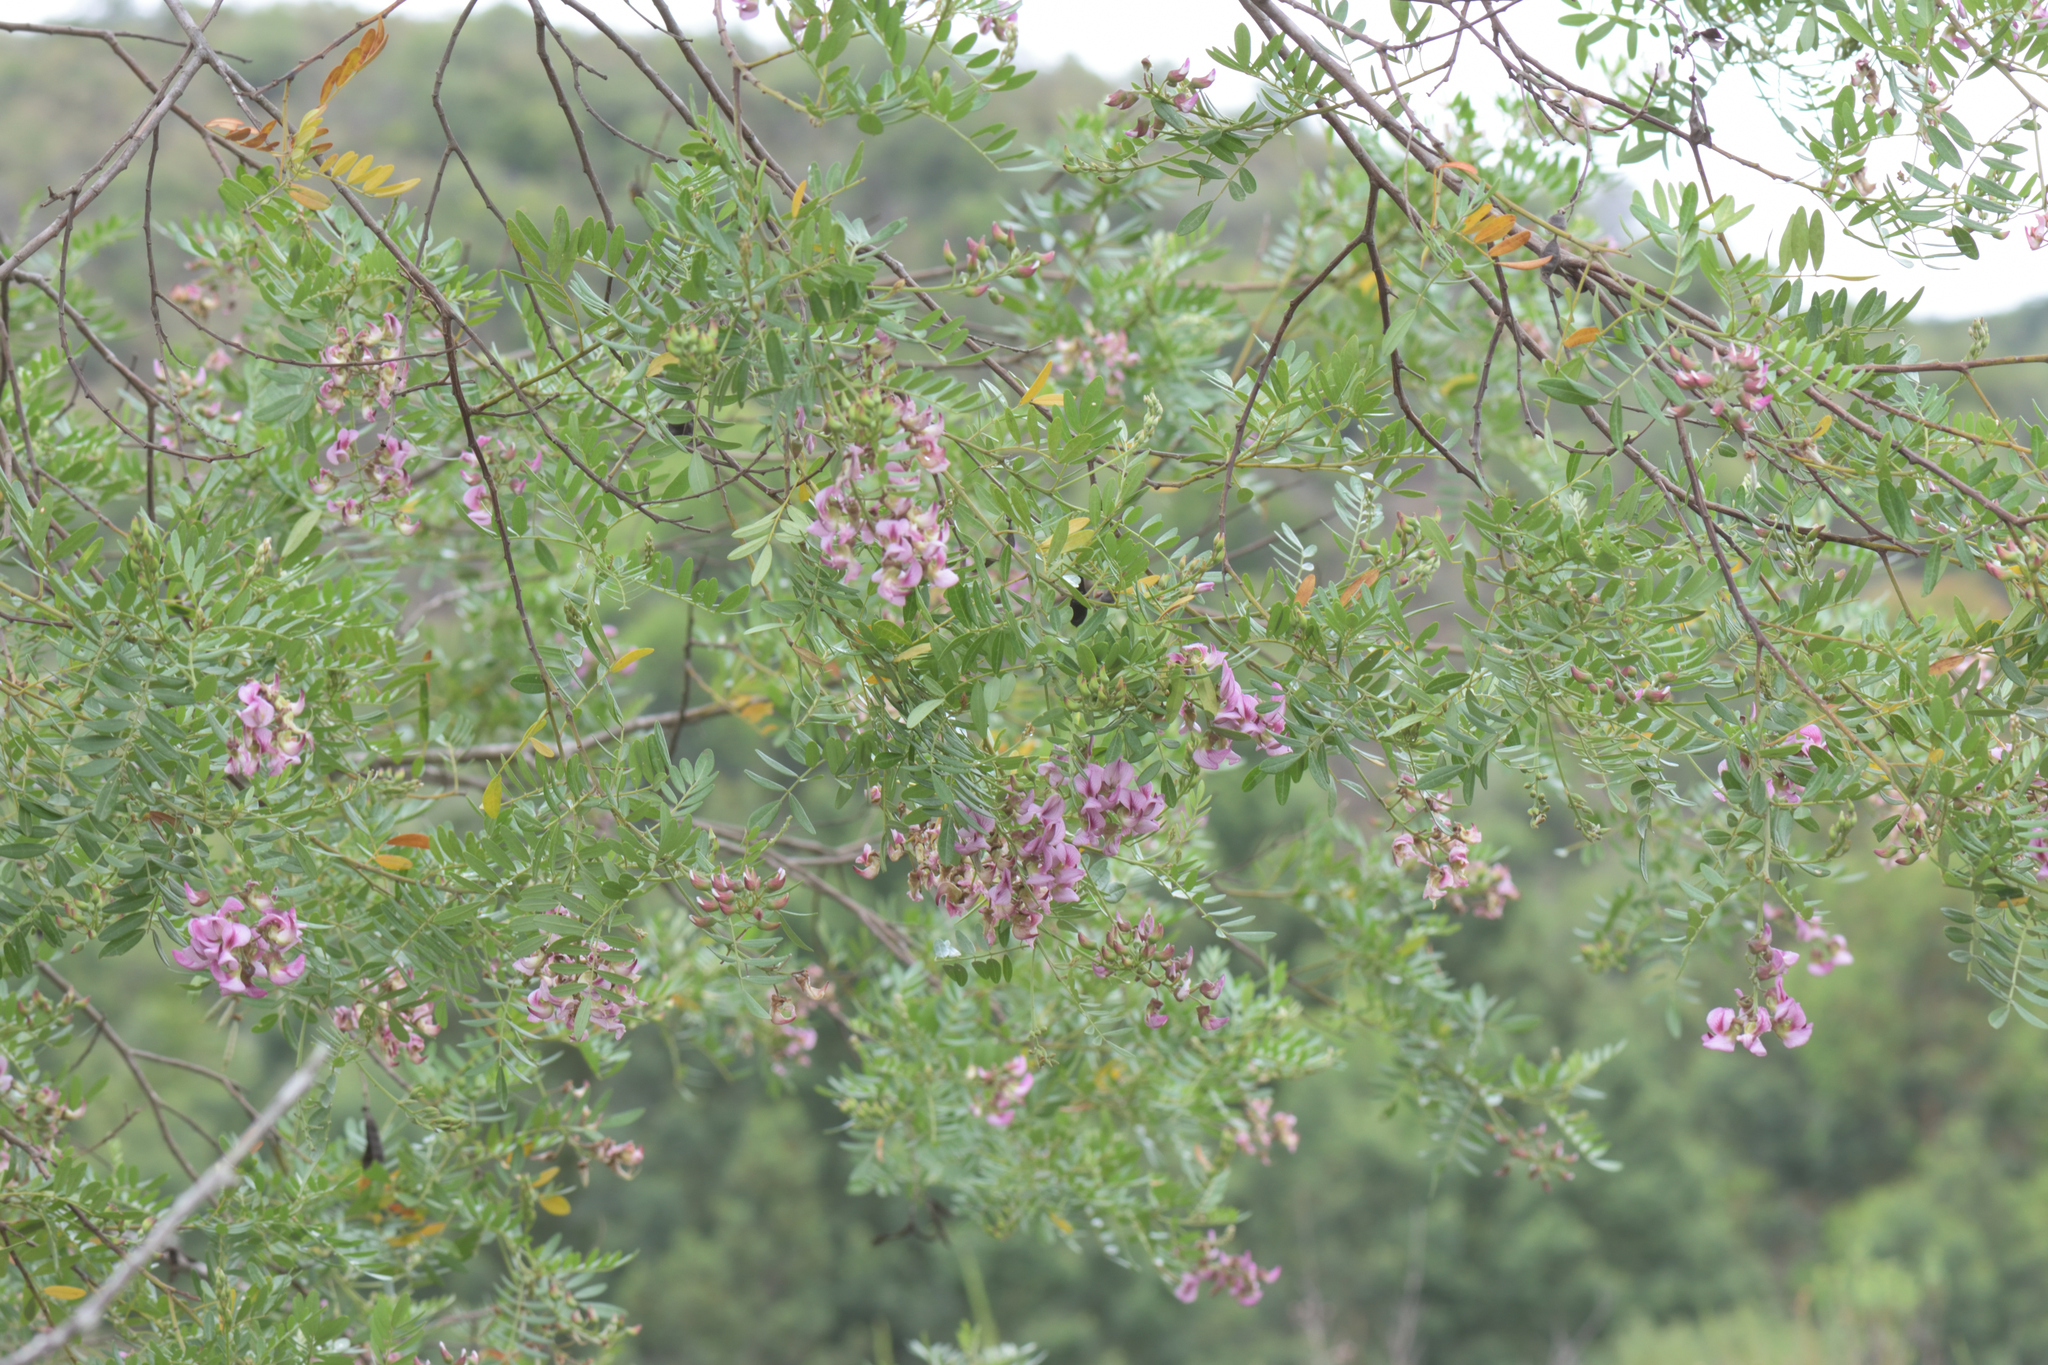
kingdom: Plantae
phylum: Tracheophyta
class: Magnoliopsida
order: Fabales
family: Fabaceae
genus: Virgilia
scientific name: Virgilia oroboides
